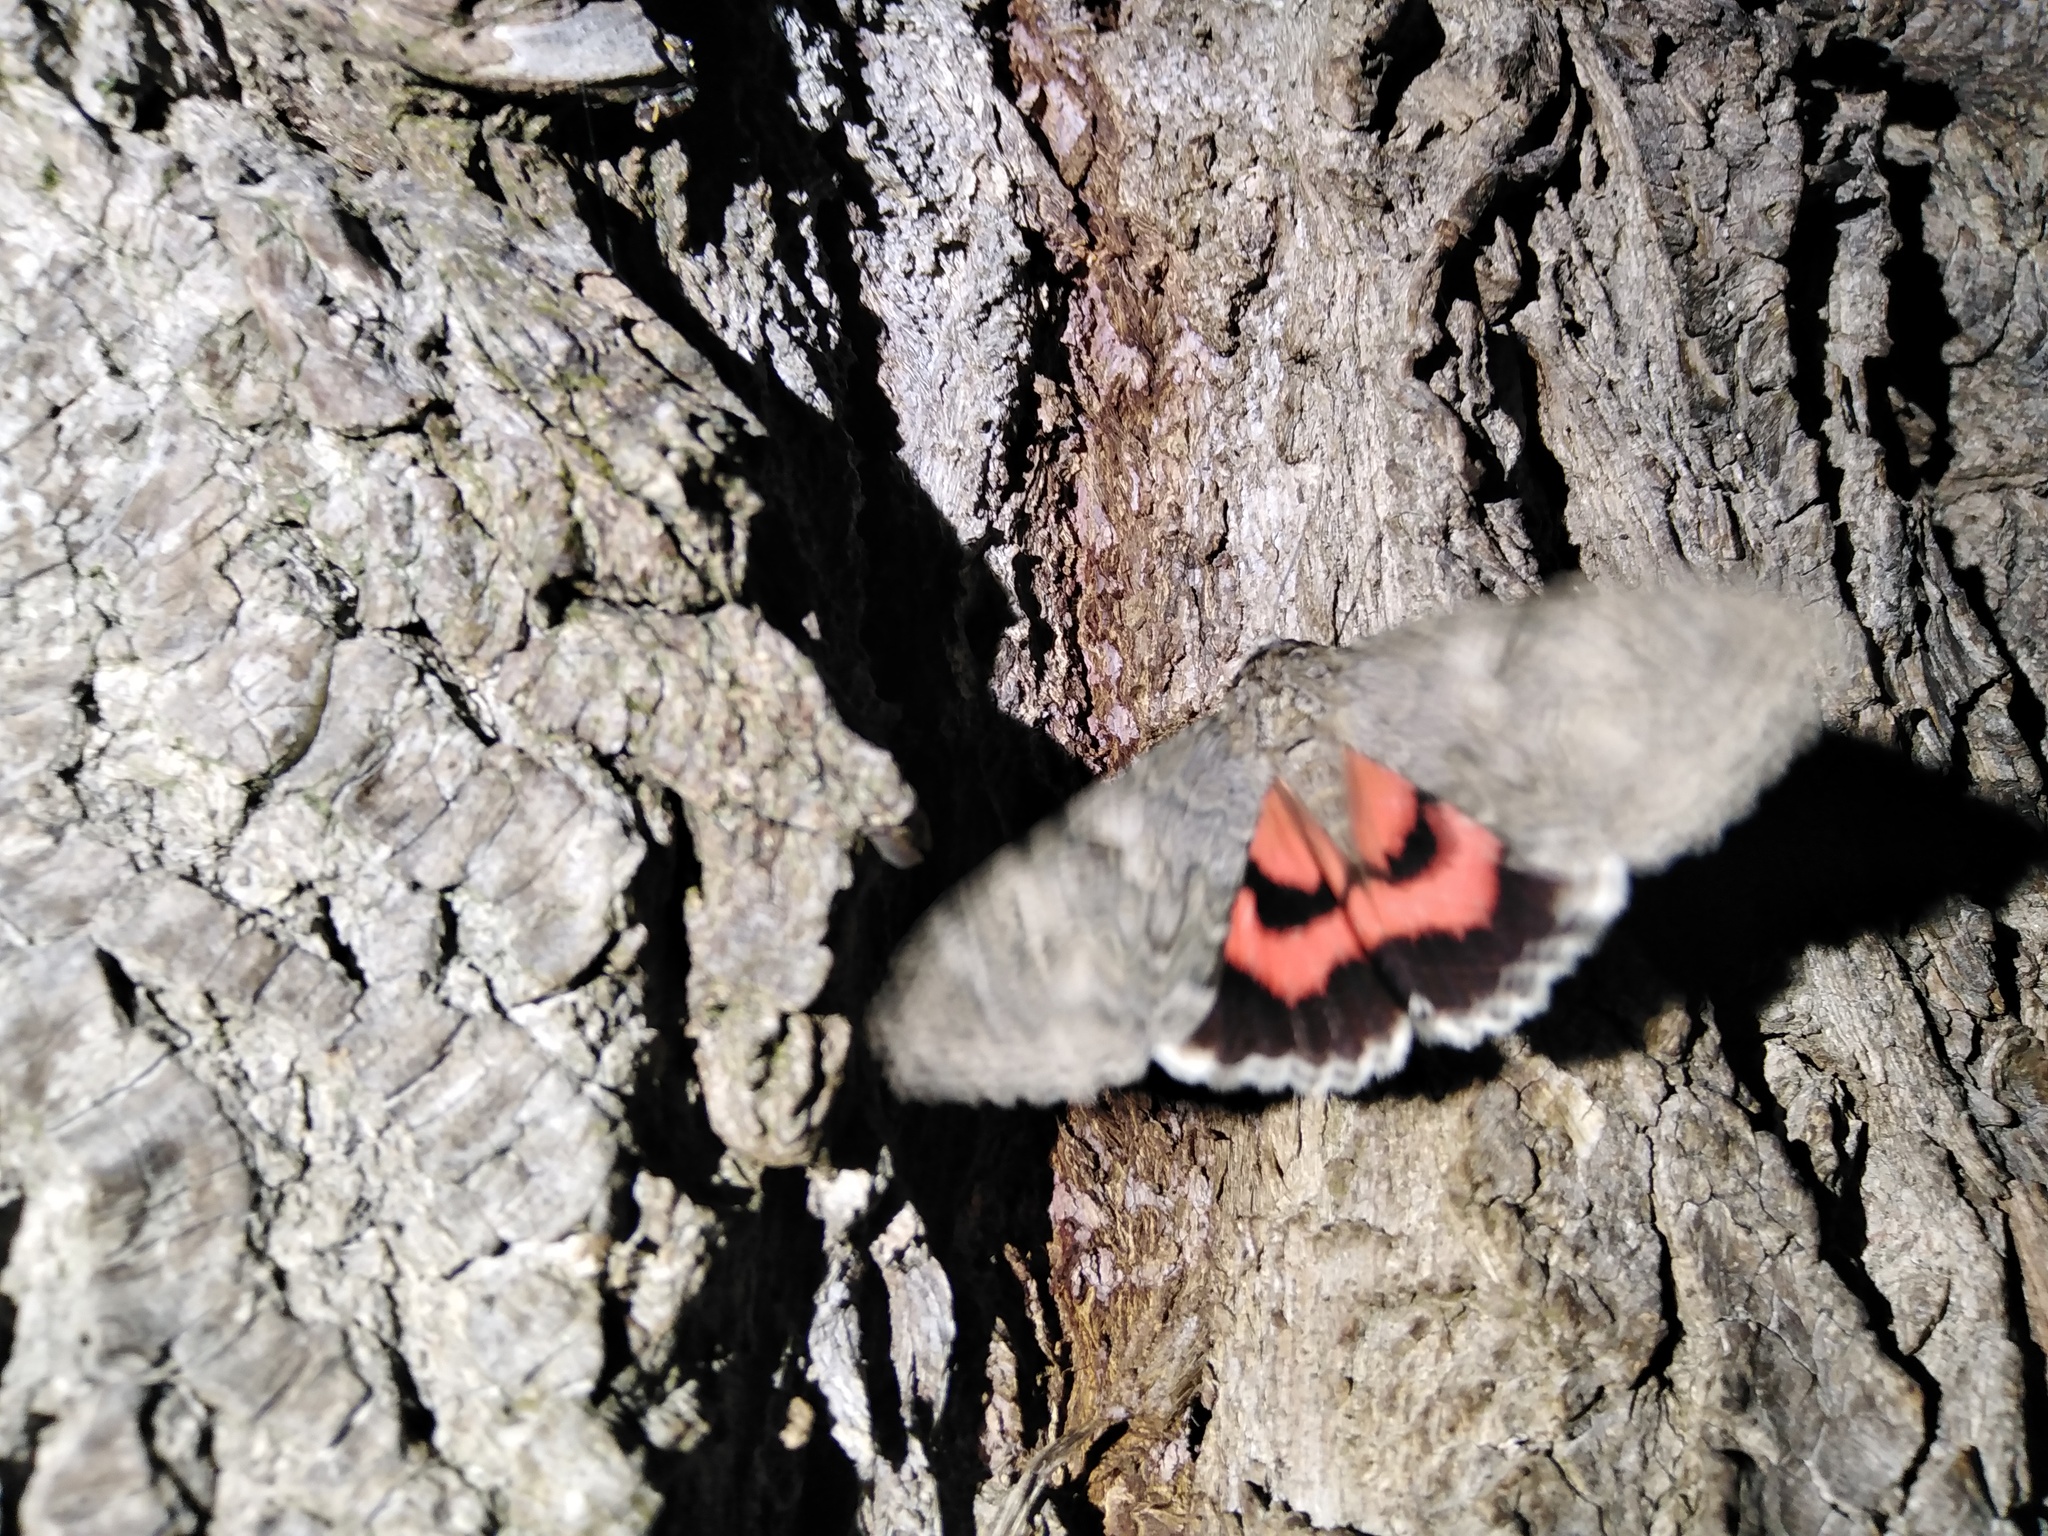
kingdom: Animalia
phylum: Arthropoda
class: Insecta
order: Lepidoptera
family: Erebidae
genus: Catocala
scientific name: Catocala nupta
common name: Red underwing
